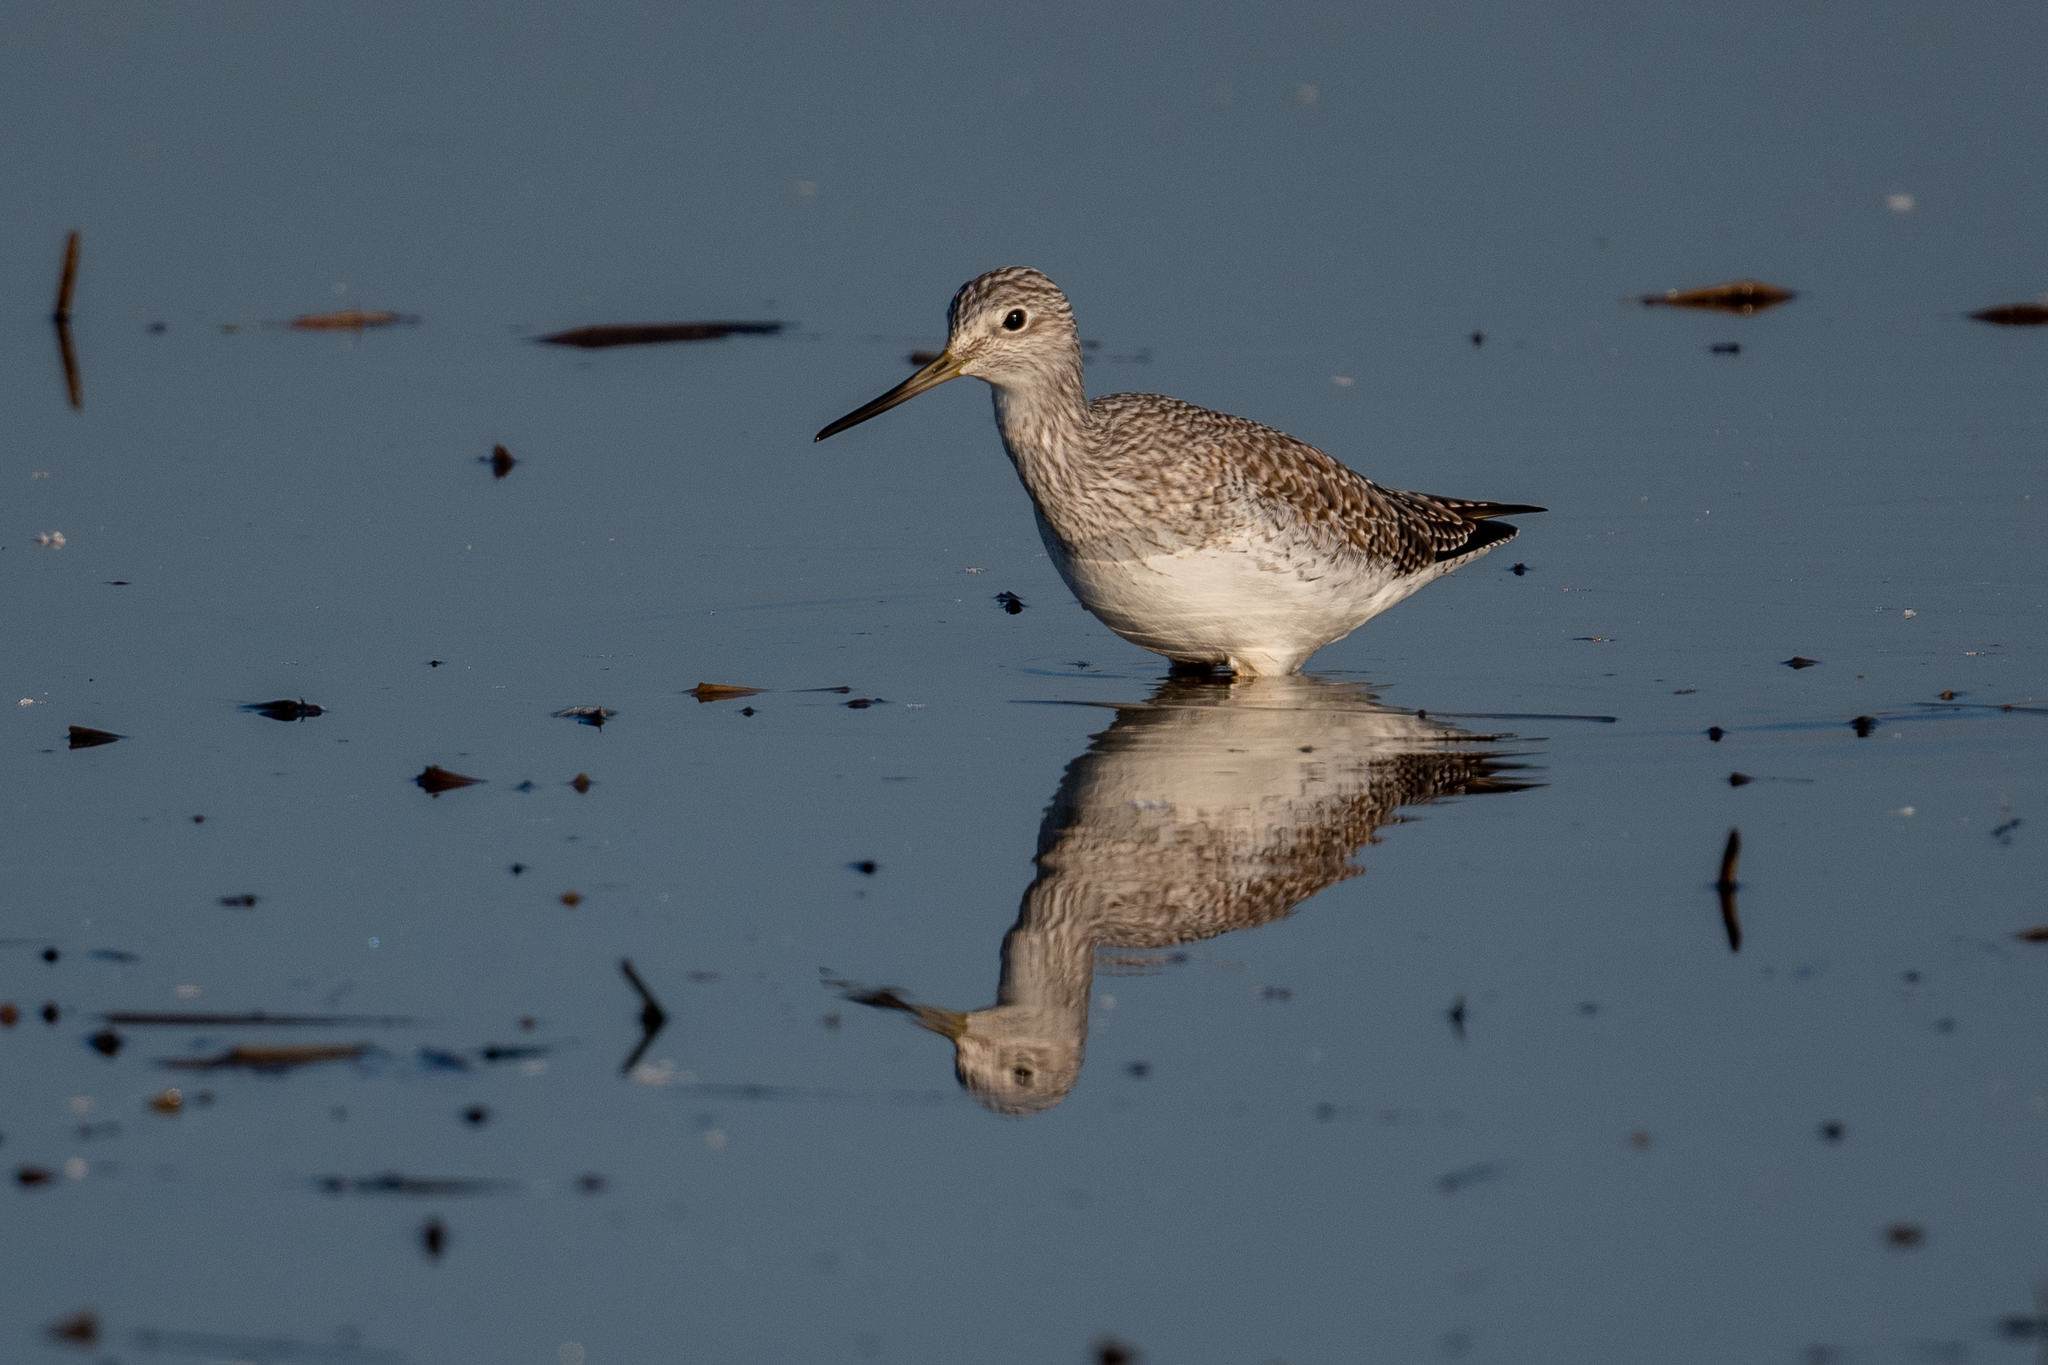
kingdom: Animalia
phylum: Chordata
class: Aves
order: Charadriiformes
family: Scolopacidae
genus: Tringa
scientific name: Tringa melanoleuca
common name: Greater yellowlegs
